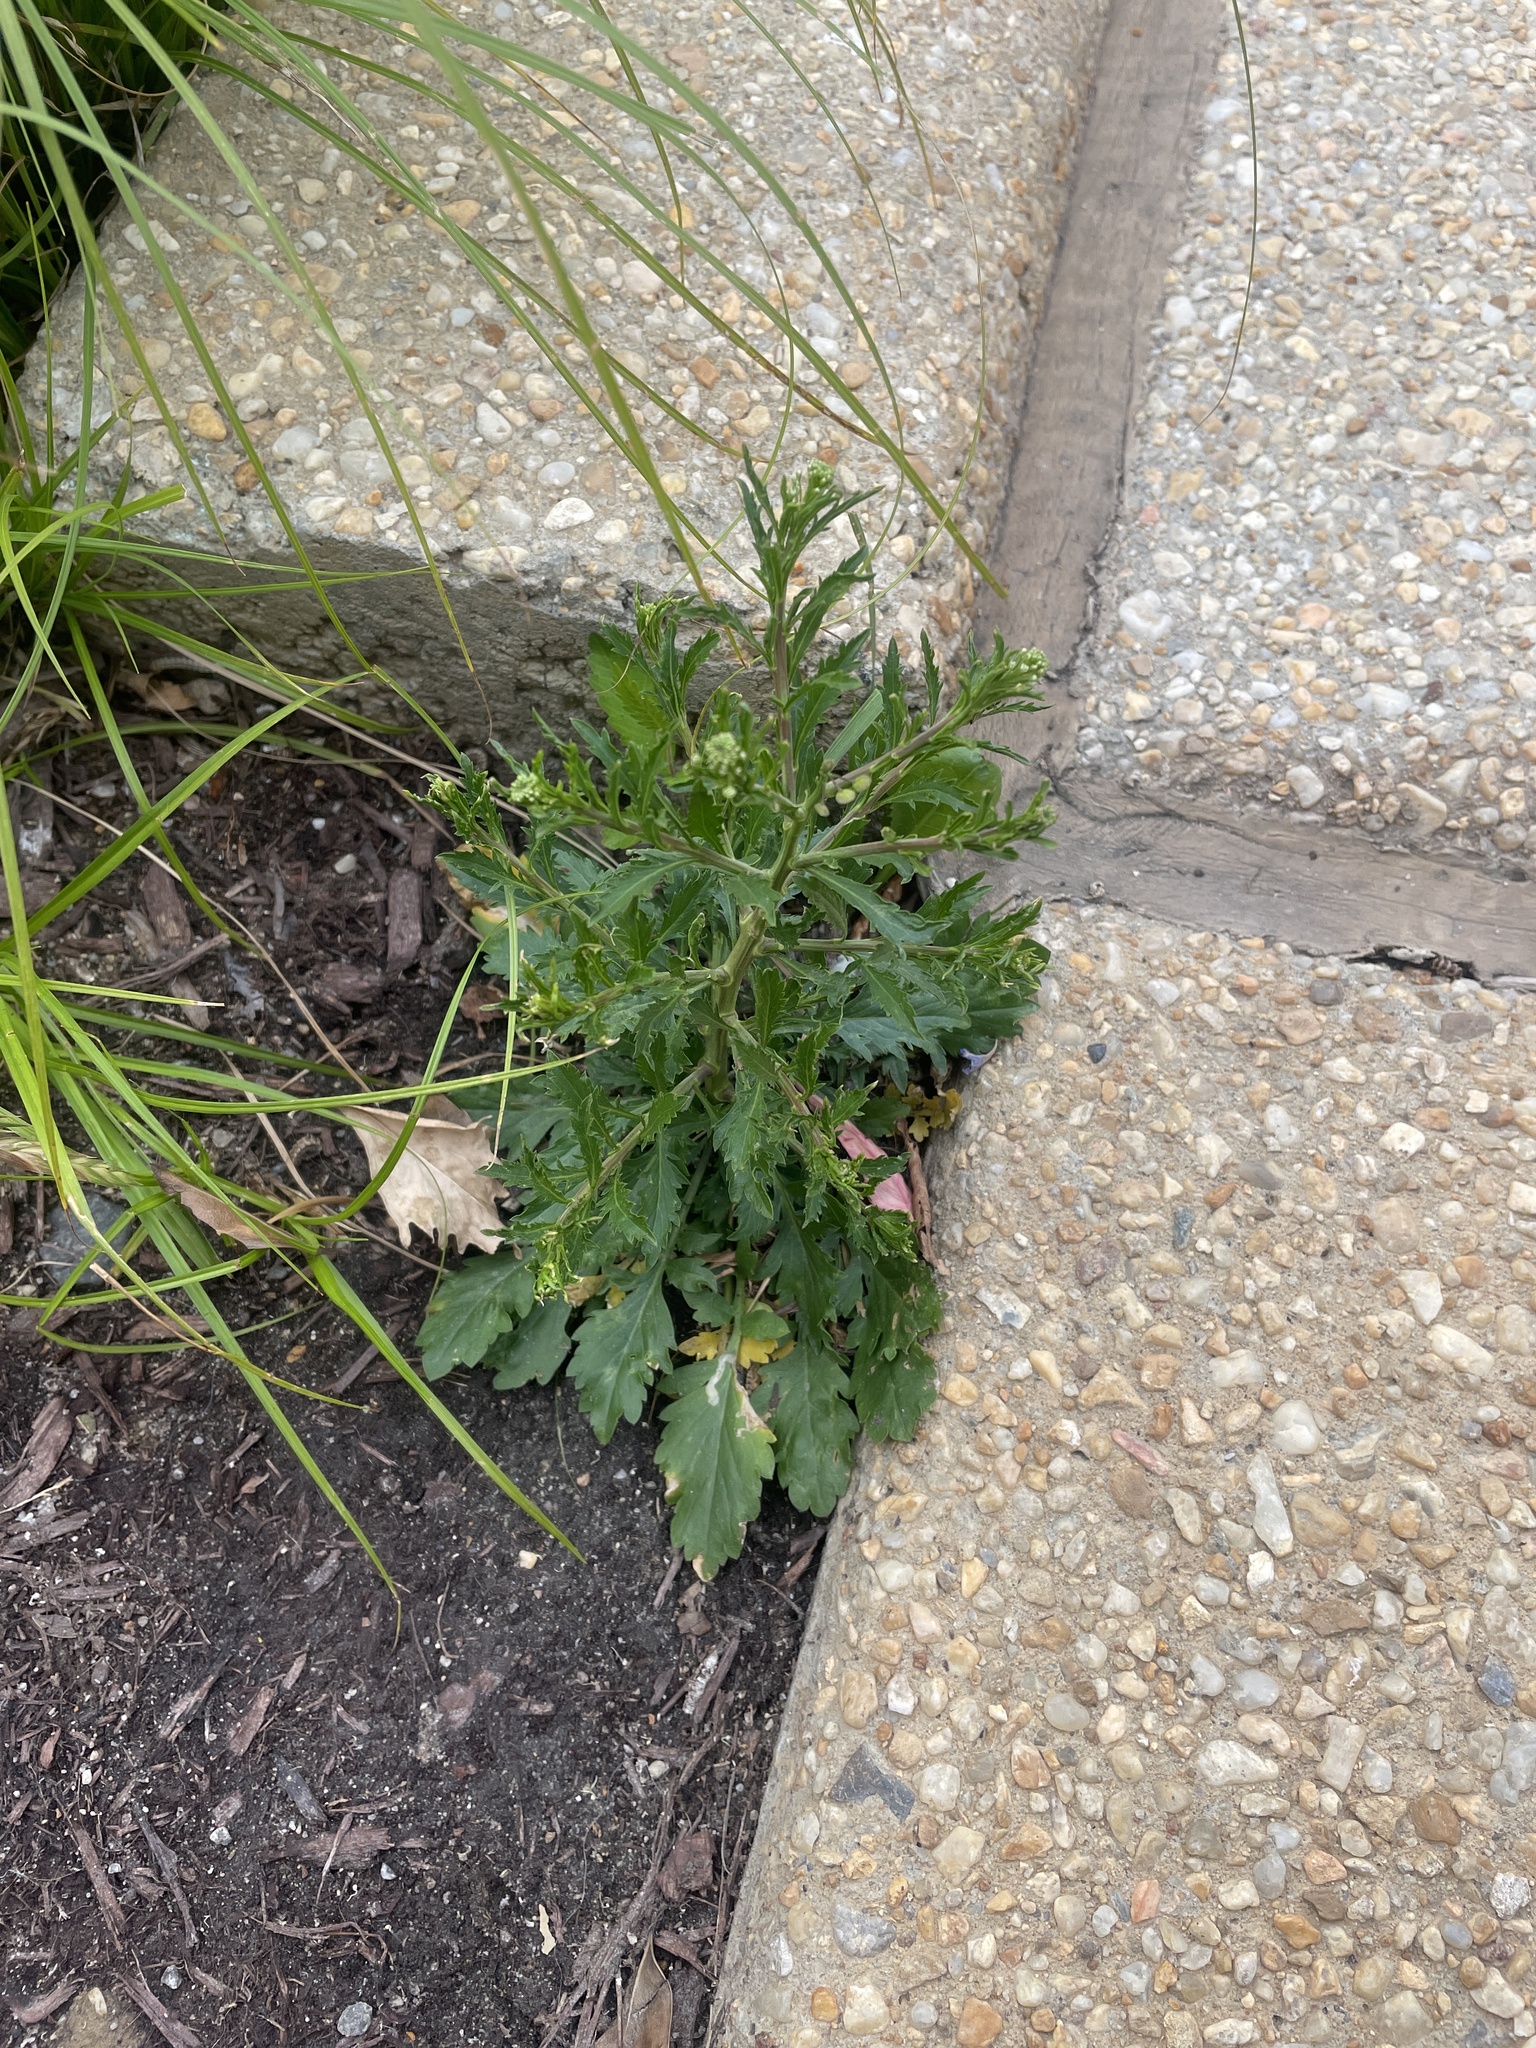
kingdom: Plantae
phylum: Tracheophyta
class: Magnoliopsida
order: Brassicales
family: Brassicaceae
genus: Lepidium
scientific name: Lepidium virginicum
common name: Least pepperwort
